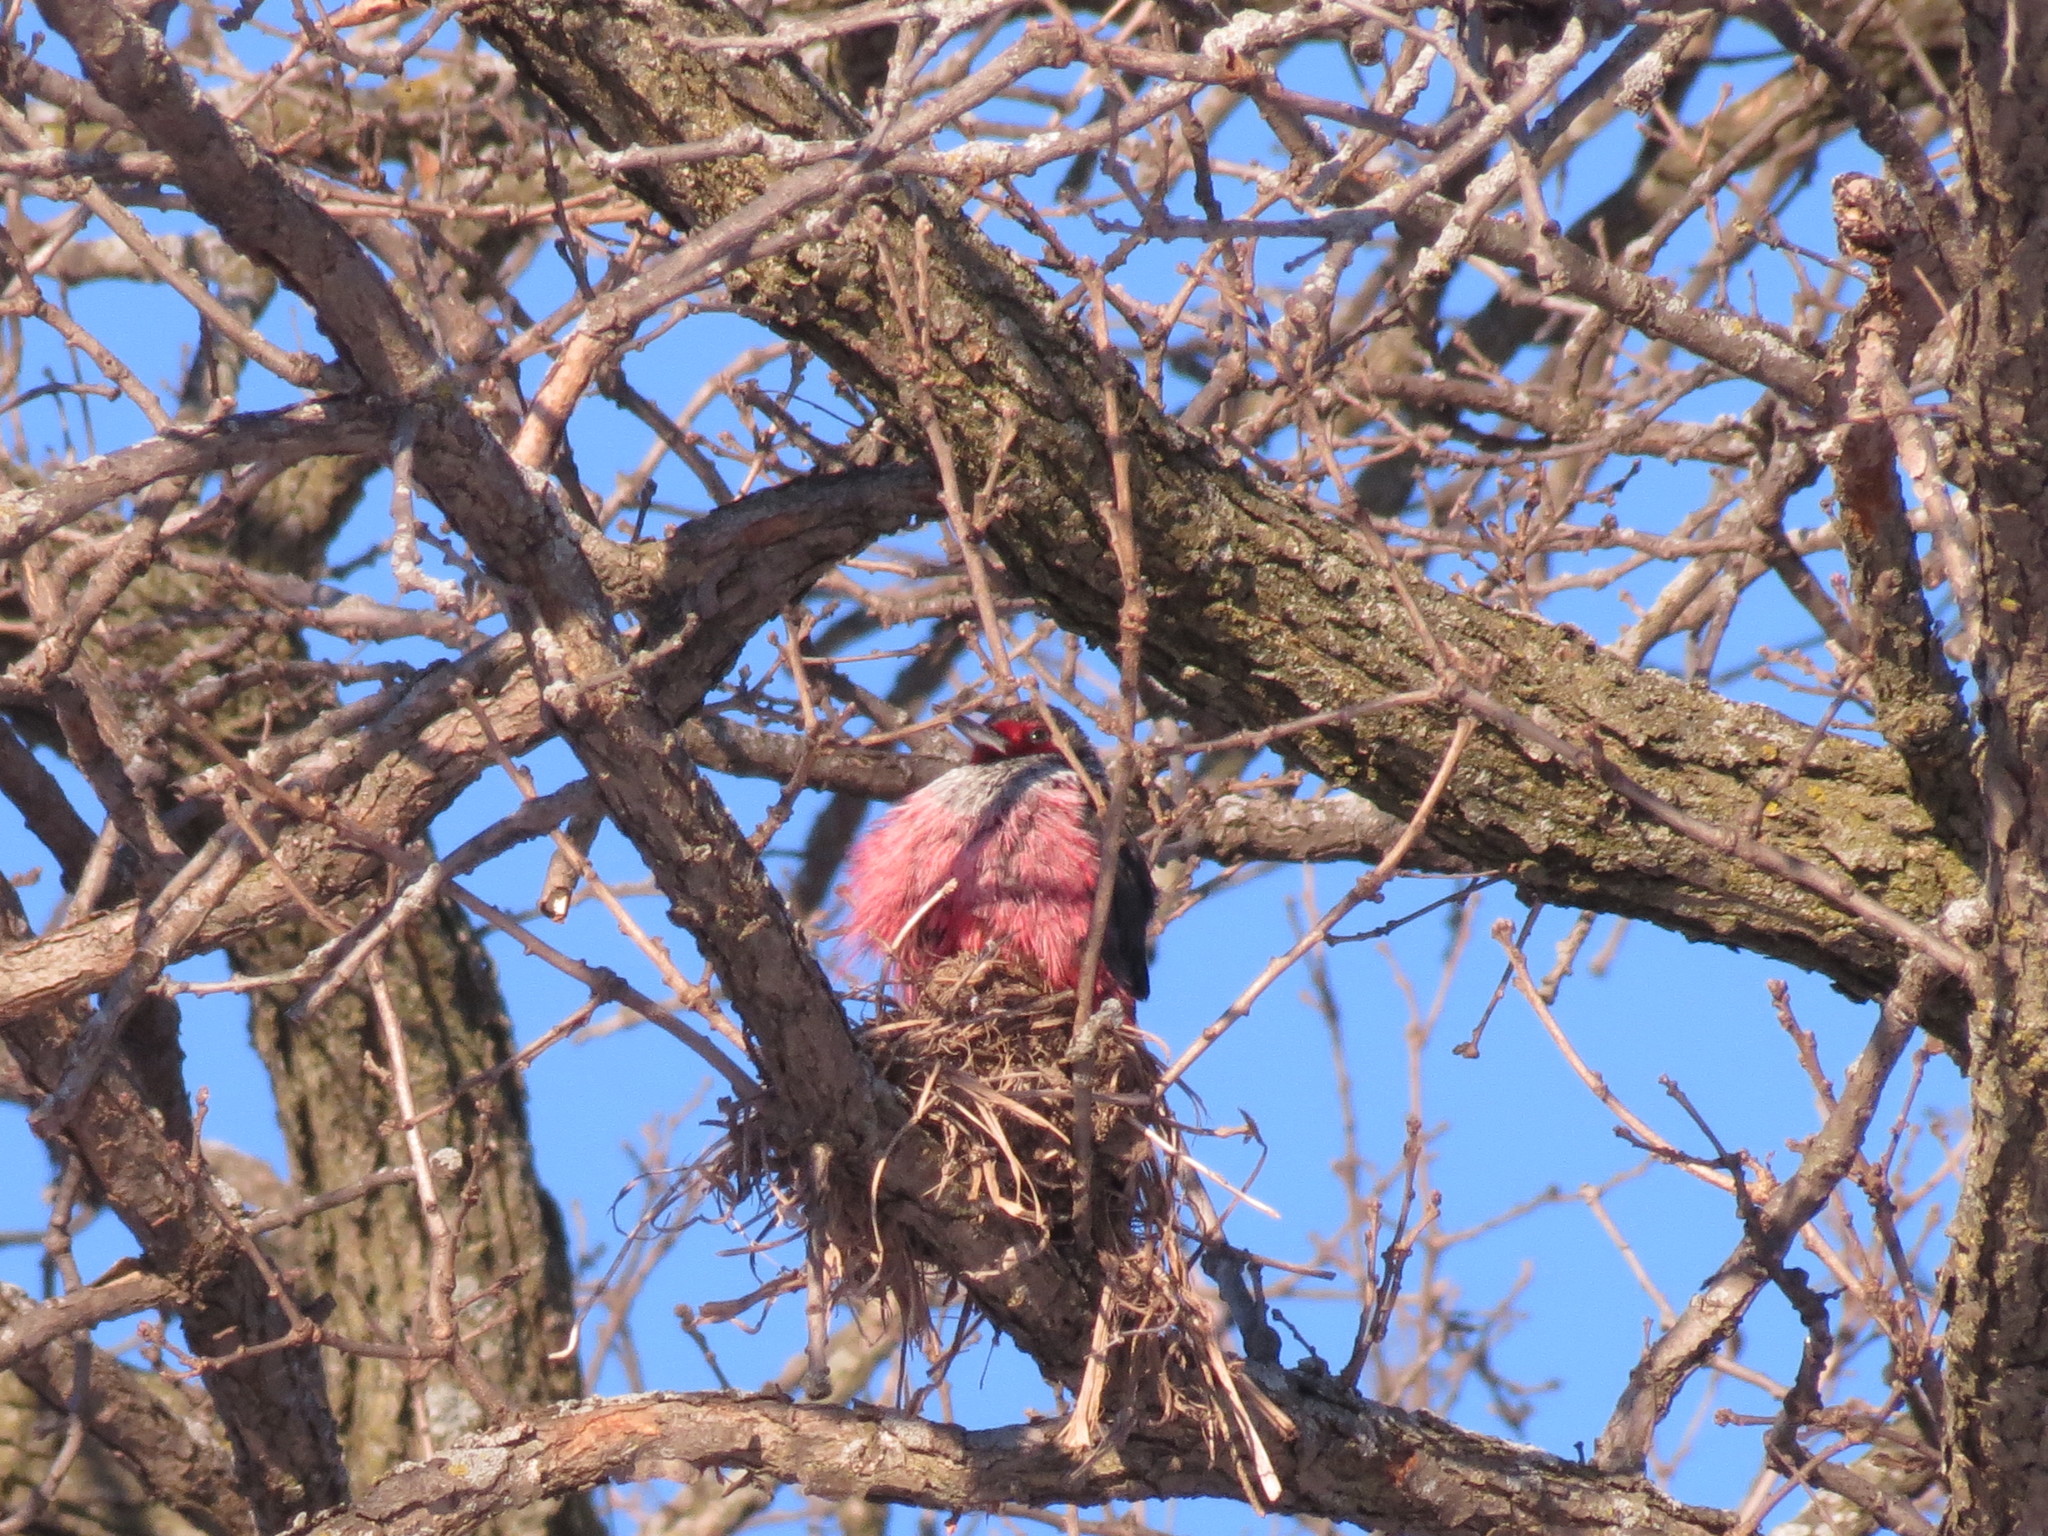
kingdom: Animalia
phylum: Chordata
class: Aves
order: Piciformes
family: Picidae
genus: Melanerpes
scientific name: Melanerpes lewis
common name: Lewis's woodpecker
